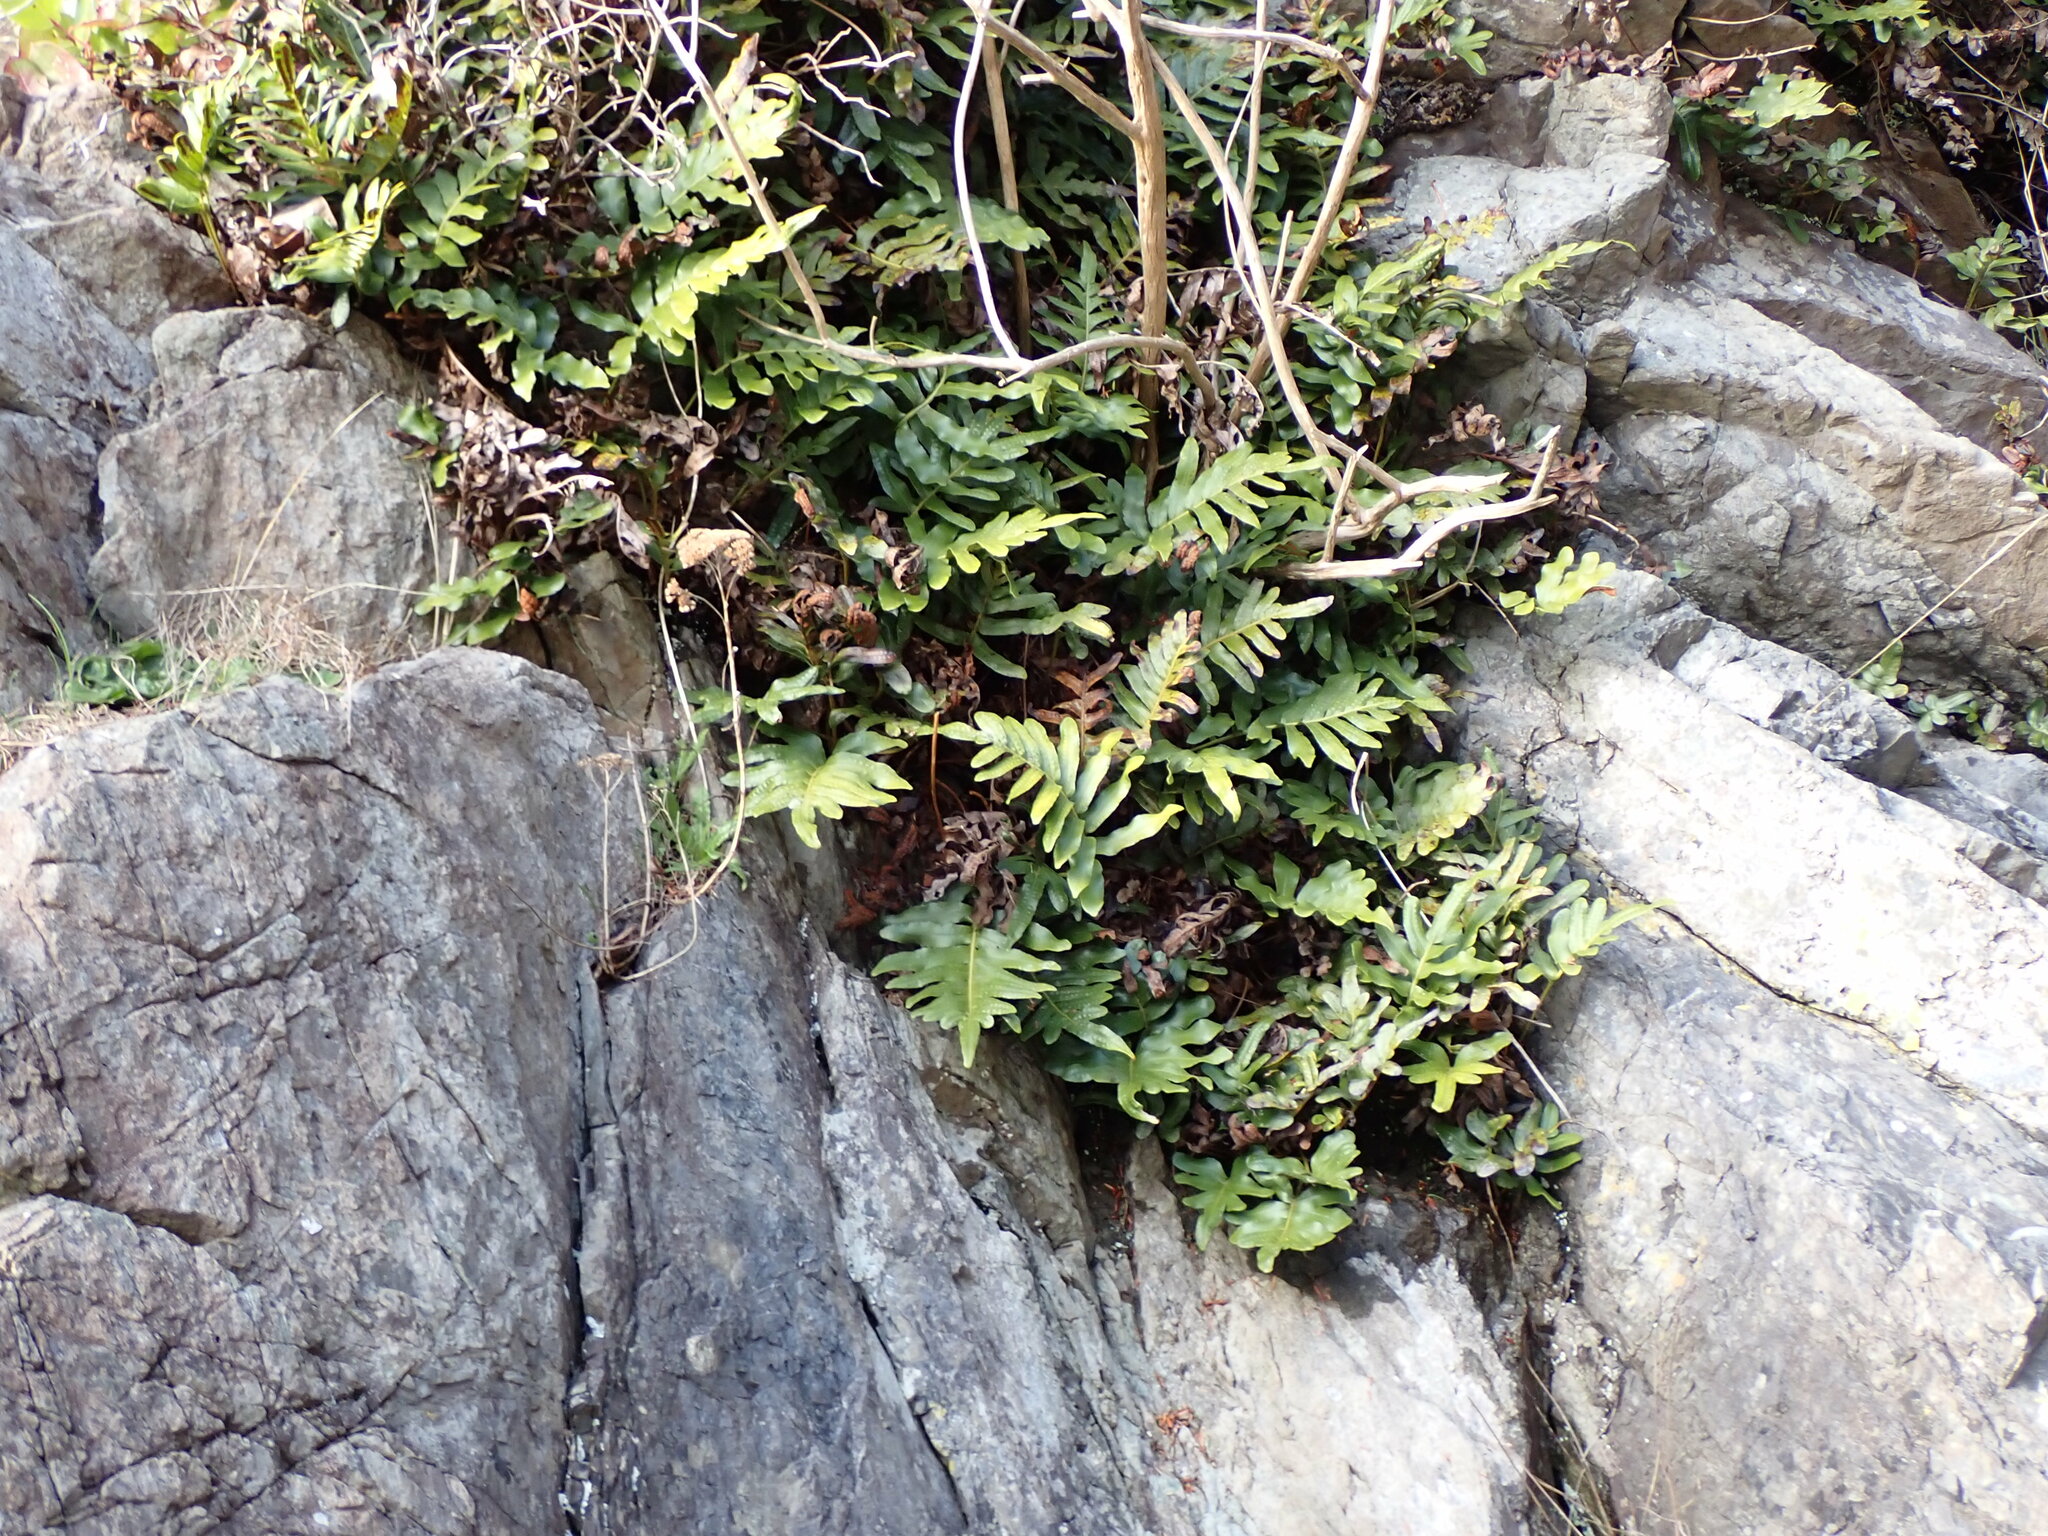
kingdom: Plantae
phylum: Tracheophyta
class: Polypodiopsida
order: Polypodiales
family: Polypodiaceae
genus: Polypodium
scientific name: Polypodium scouleri
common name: Scouler's polypody
